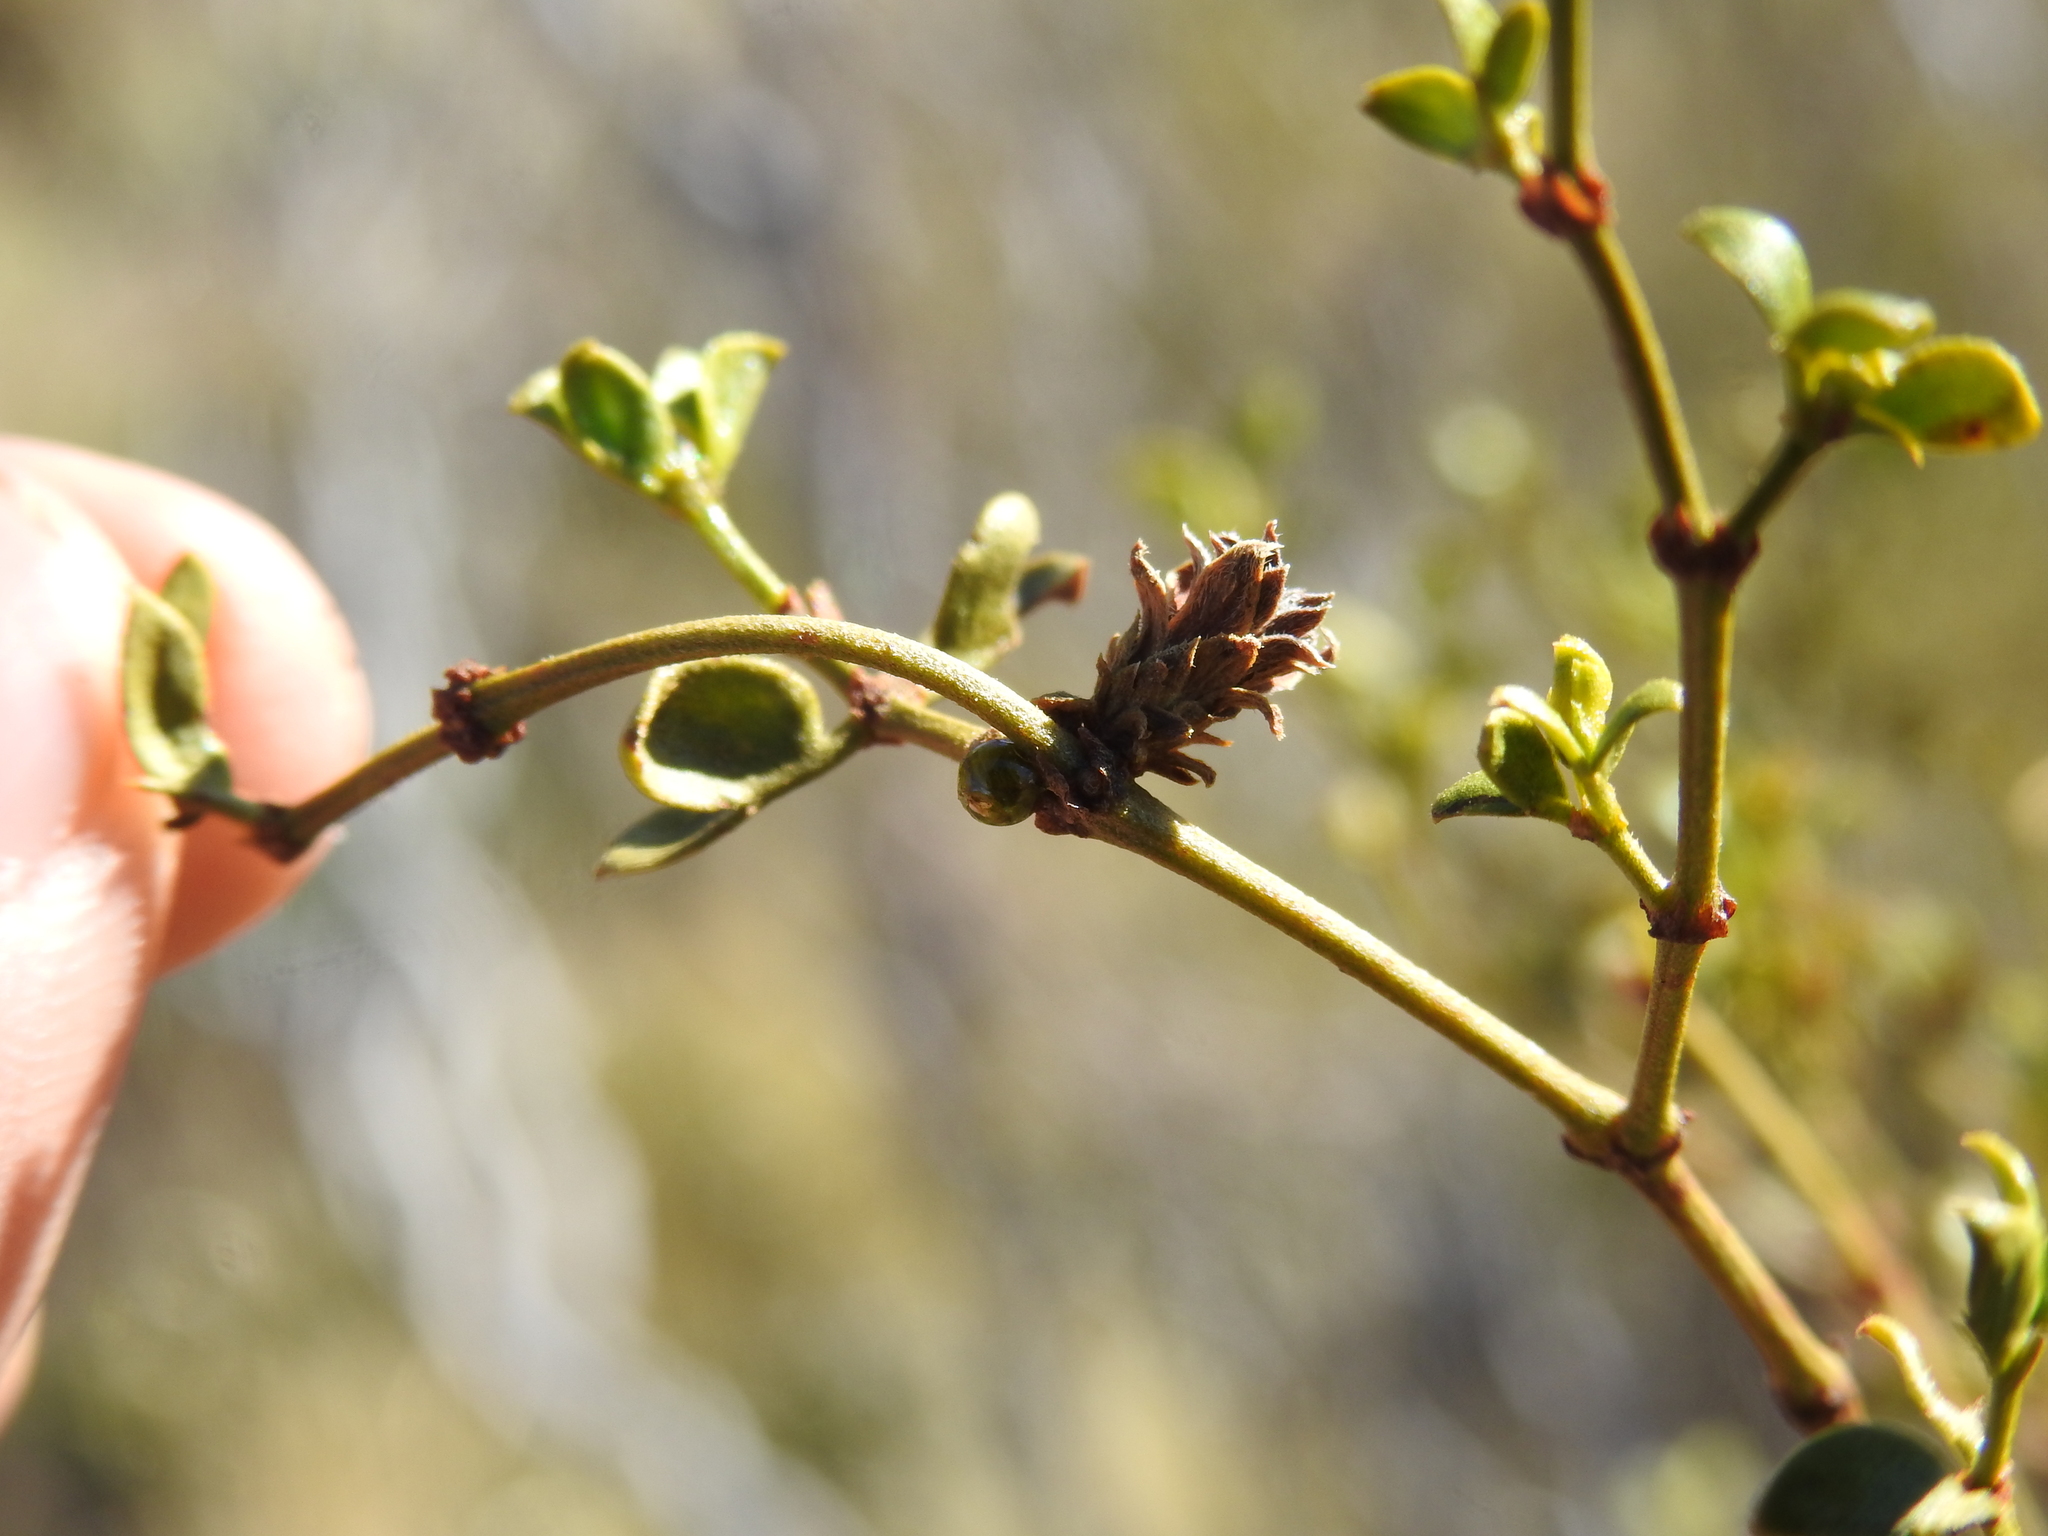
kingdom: Animalia
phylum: Arthropoda
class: Insecta
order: Diptera
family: Cecidomyiidae
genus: Asphondylia
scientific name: Asphondylia rosetta
